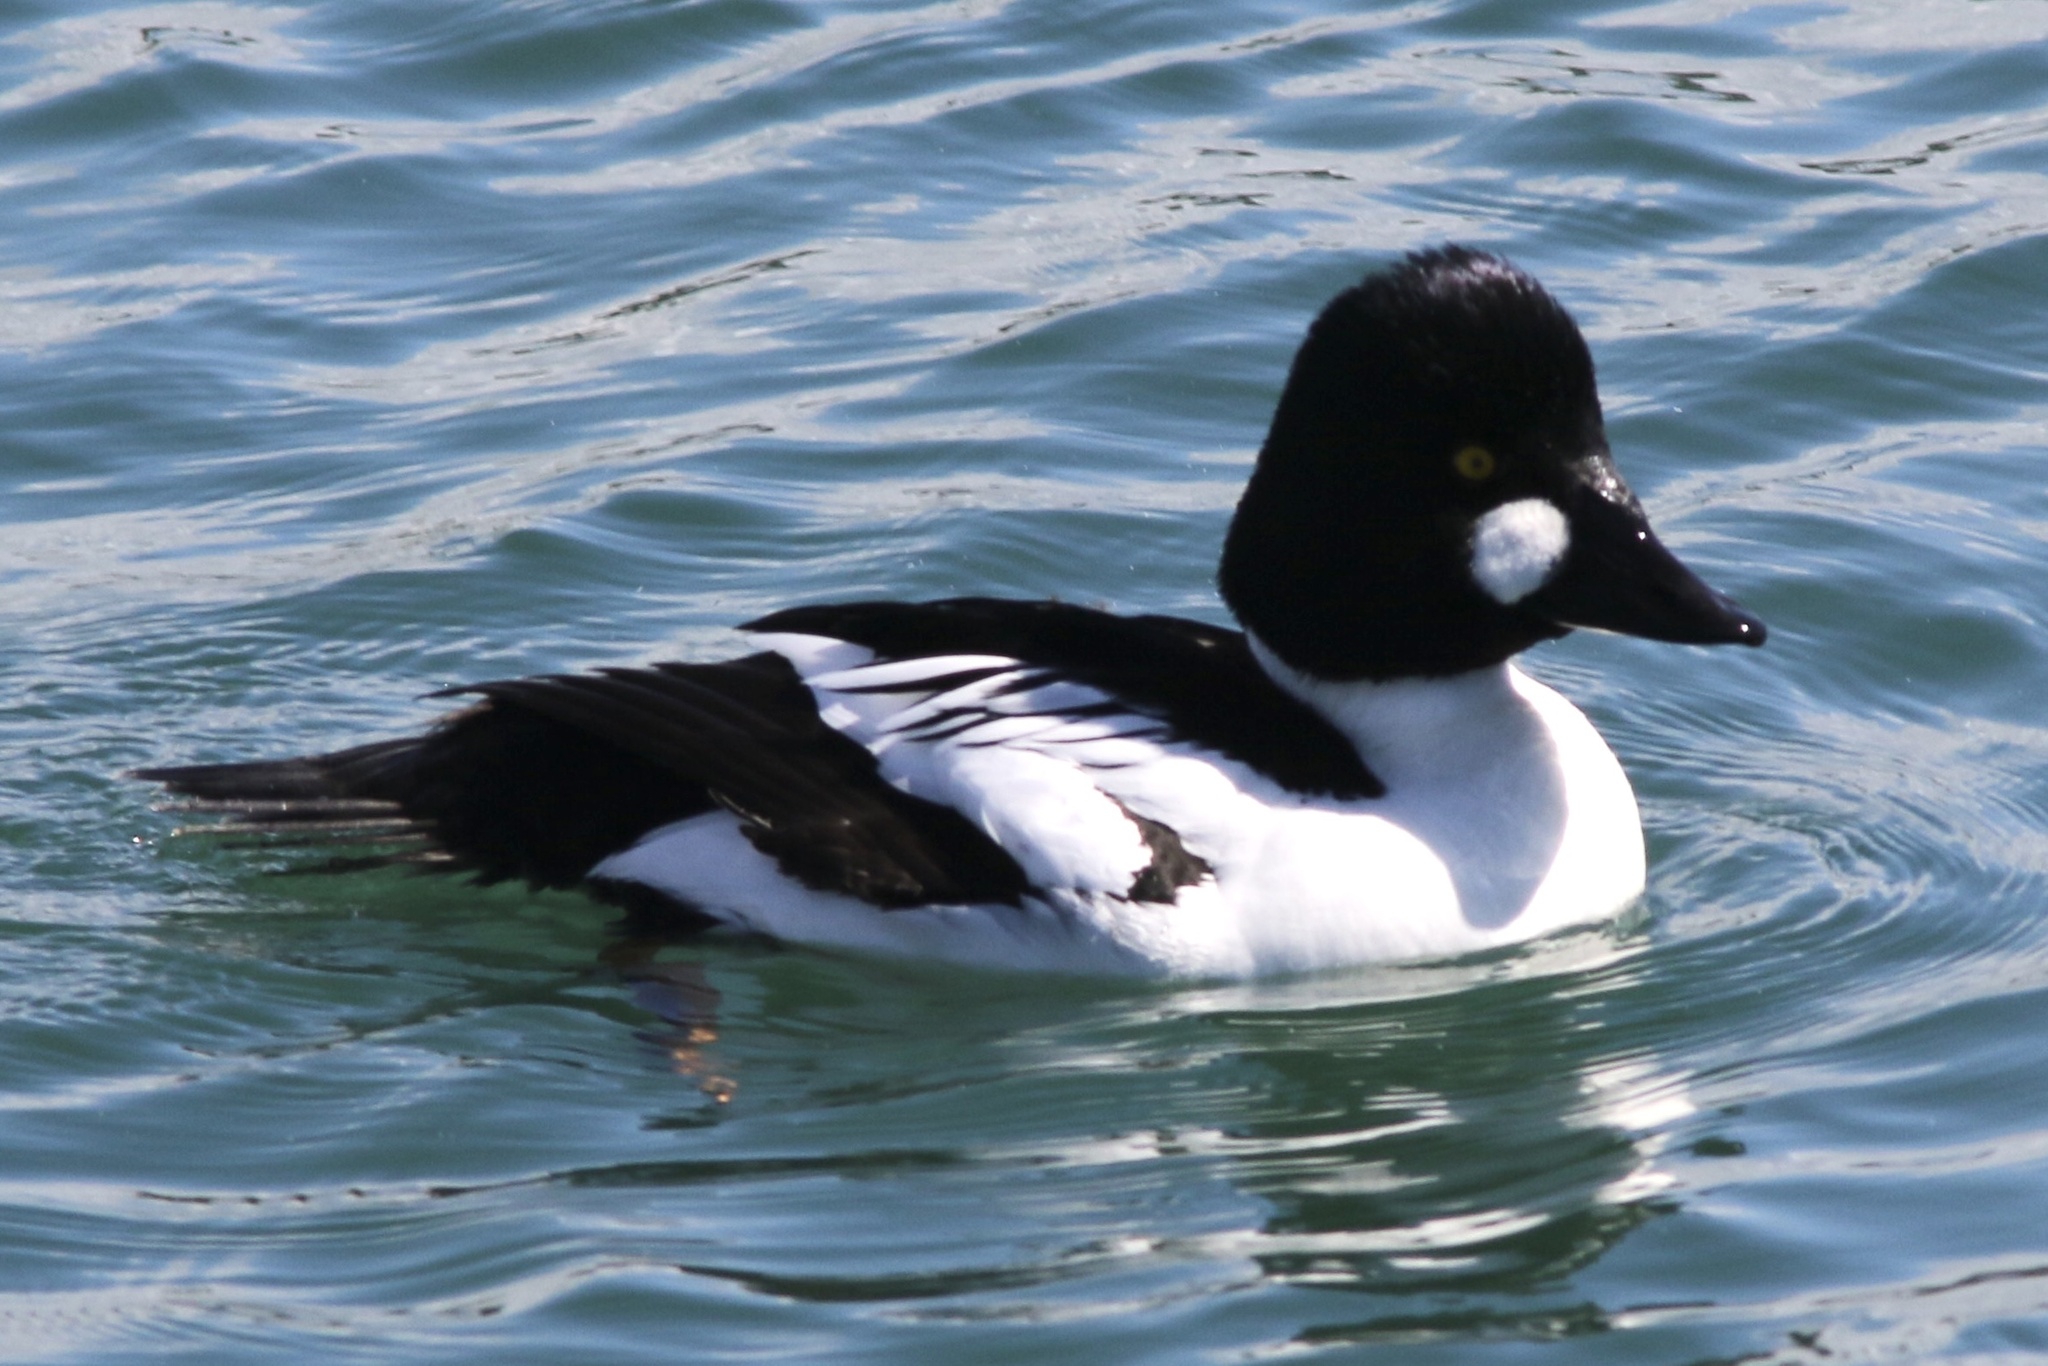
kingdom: Animalia
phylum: Chordata
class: Aves
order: Anseriformes
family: Anatidae
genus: Bucephala
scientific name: Bucephala clangula
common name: Common goldeneye
